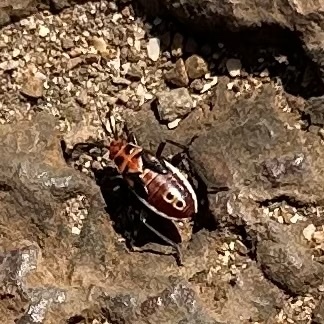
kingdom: Animalia
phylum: Arthropoda
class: Insecta
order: Hemiptera
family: Lygaeidae
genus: Spilostethus
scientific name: Spilostethus pandurus
